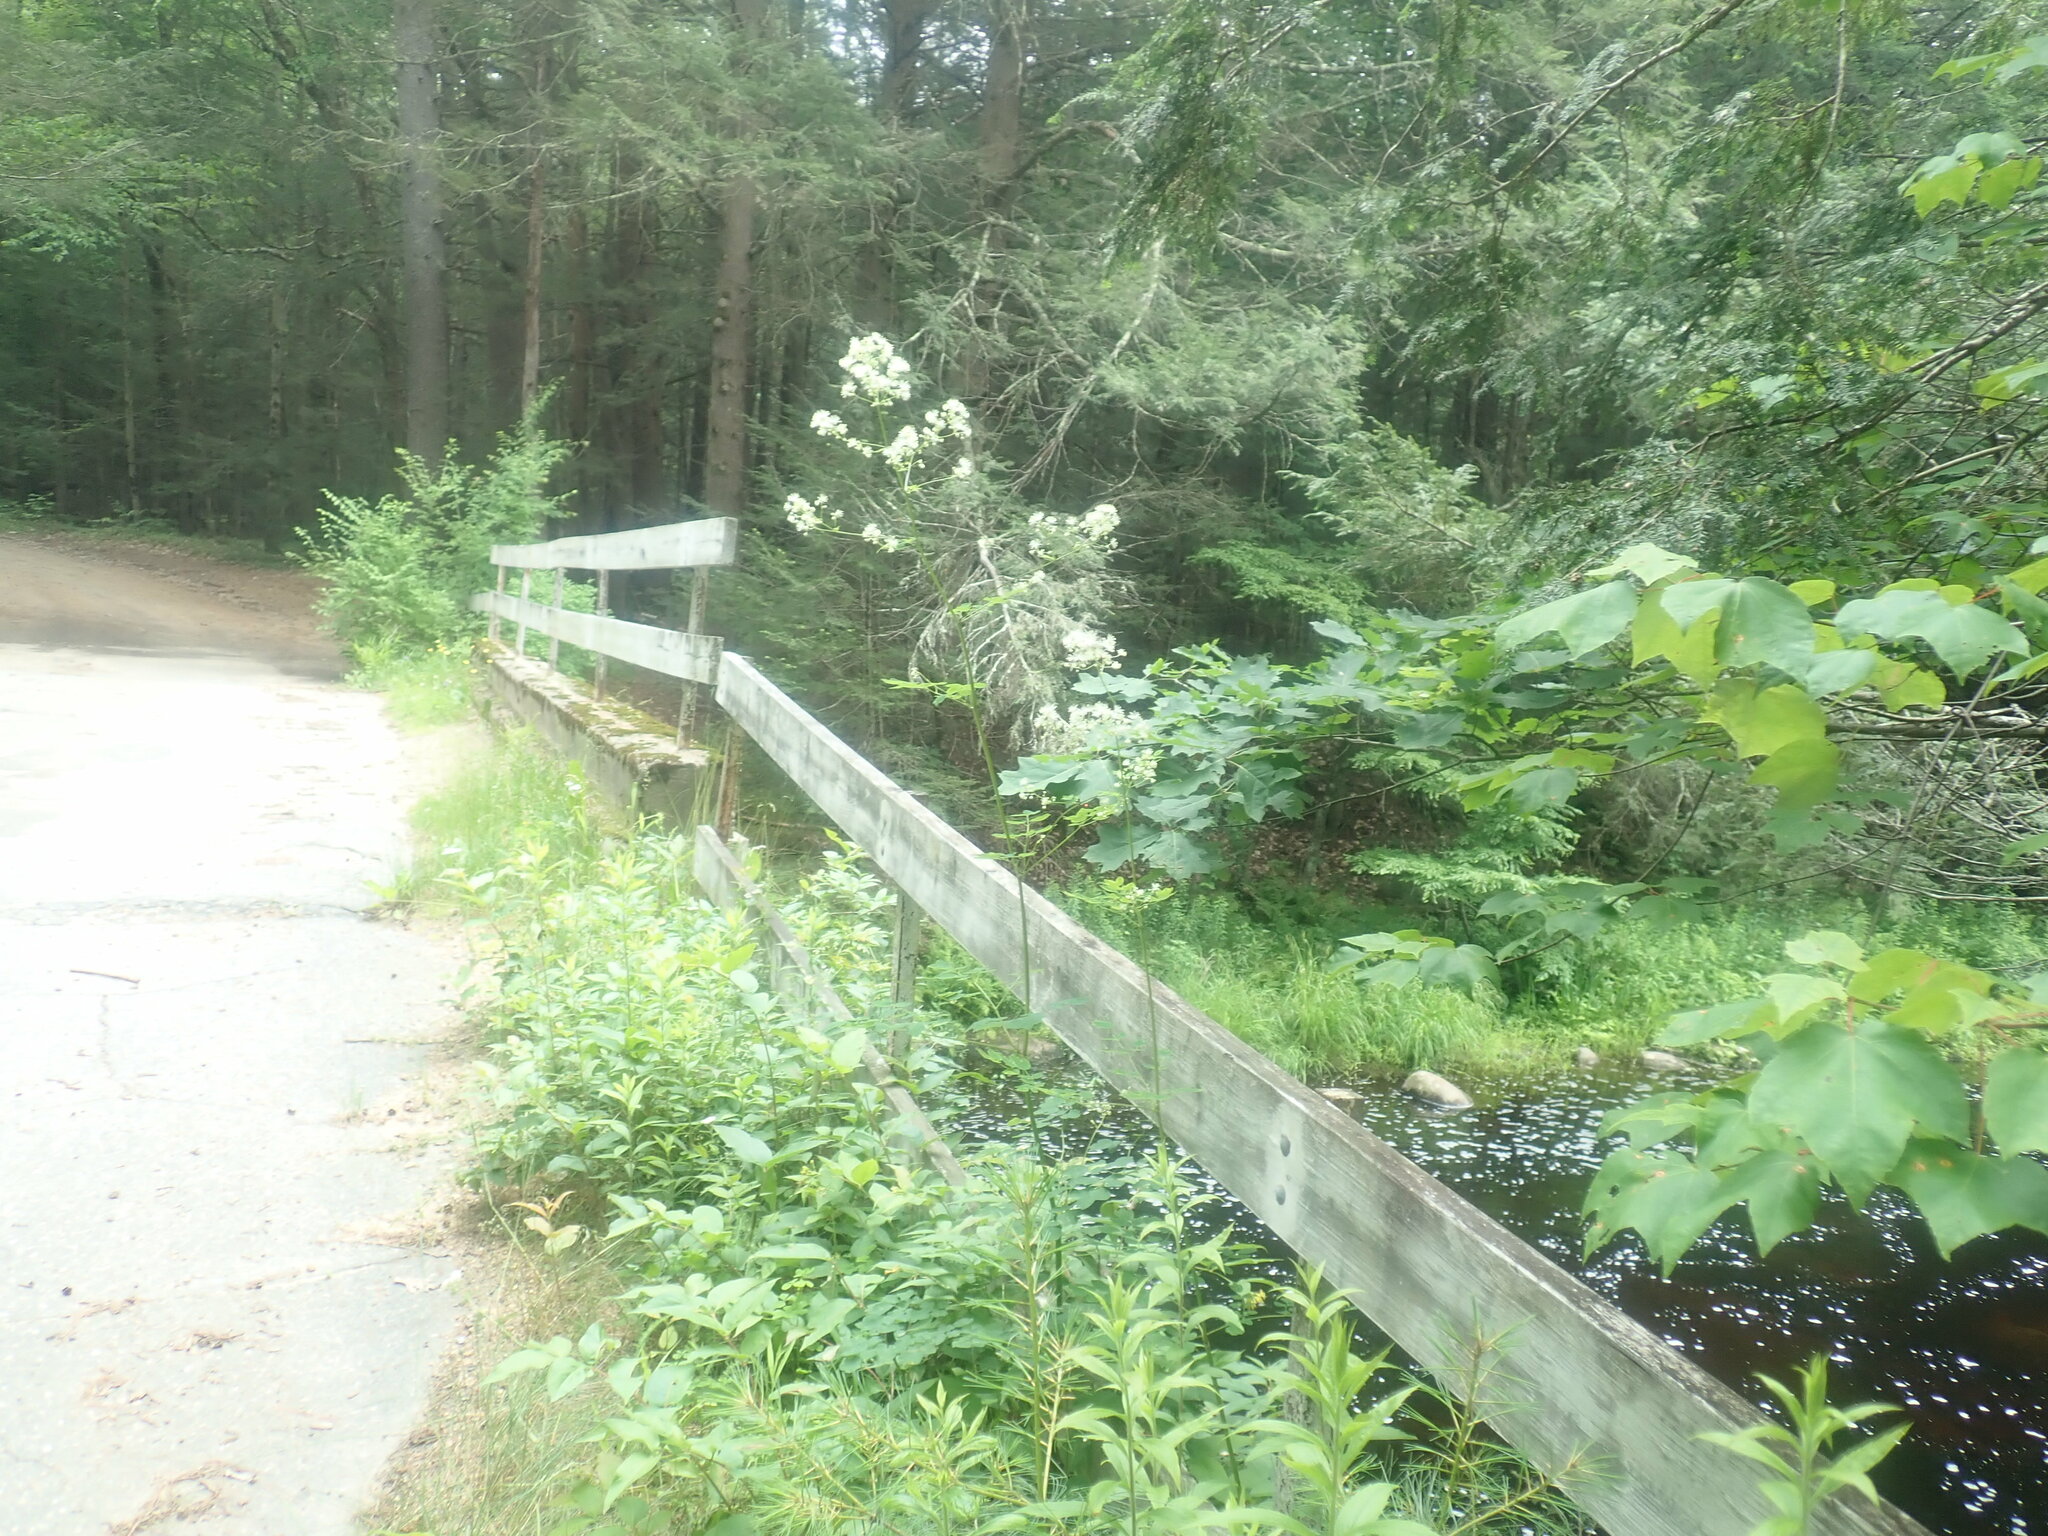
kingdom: Plantae
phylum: Tracheophyta
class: Magnoliopsida
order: Ranunculales
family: Ranunculaceae
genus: Thalictrum
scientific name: Thalictrum pubescens
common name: King-of-the-meadow
